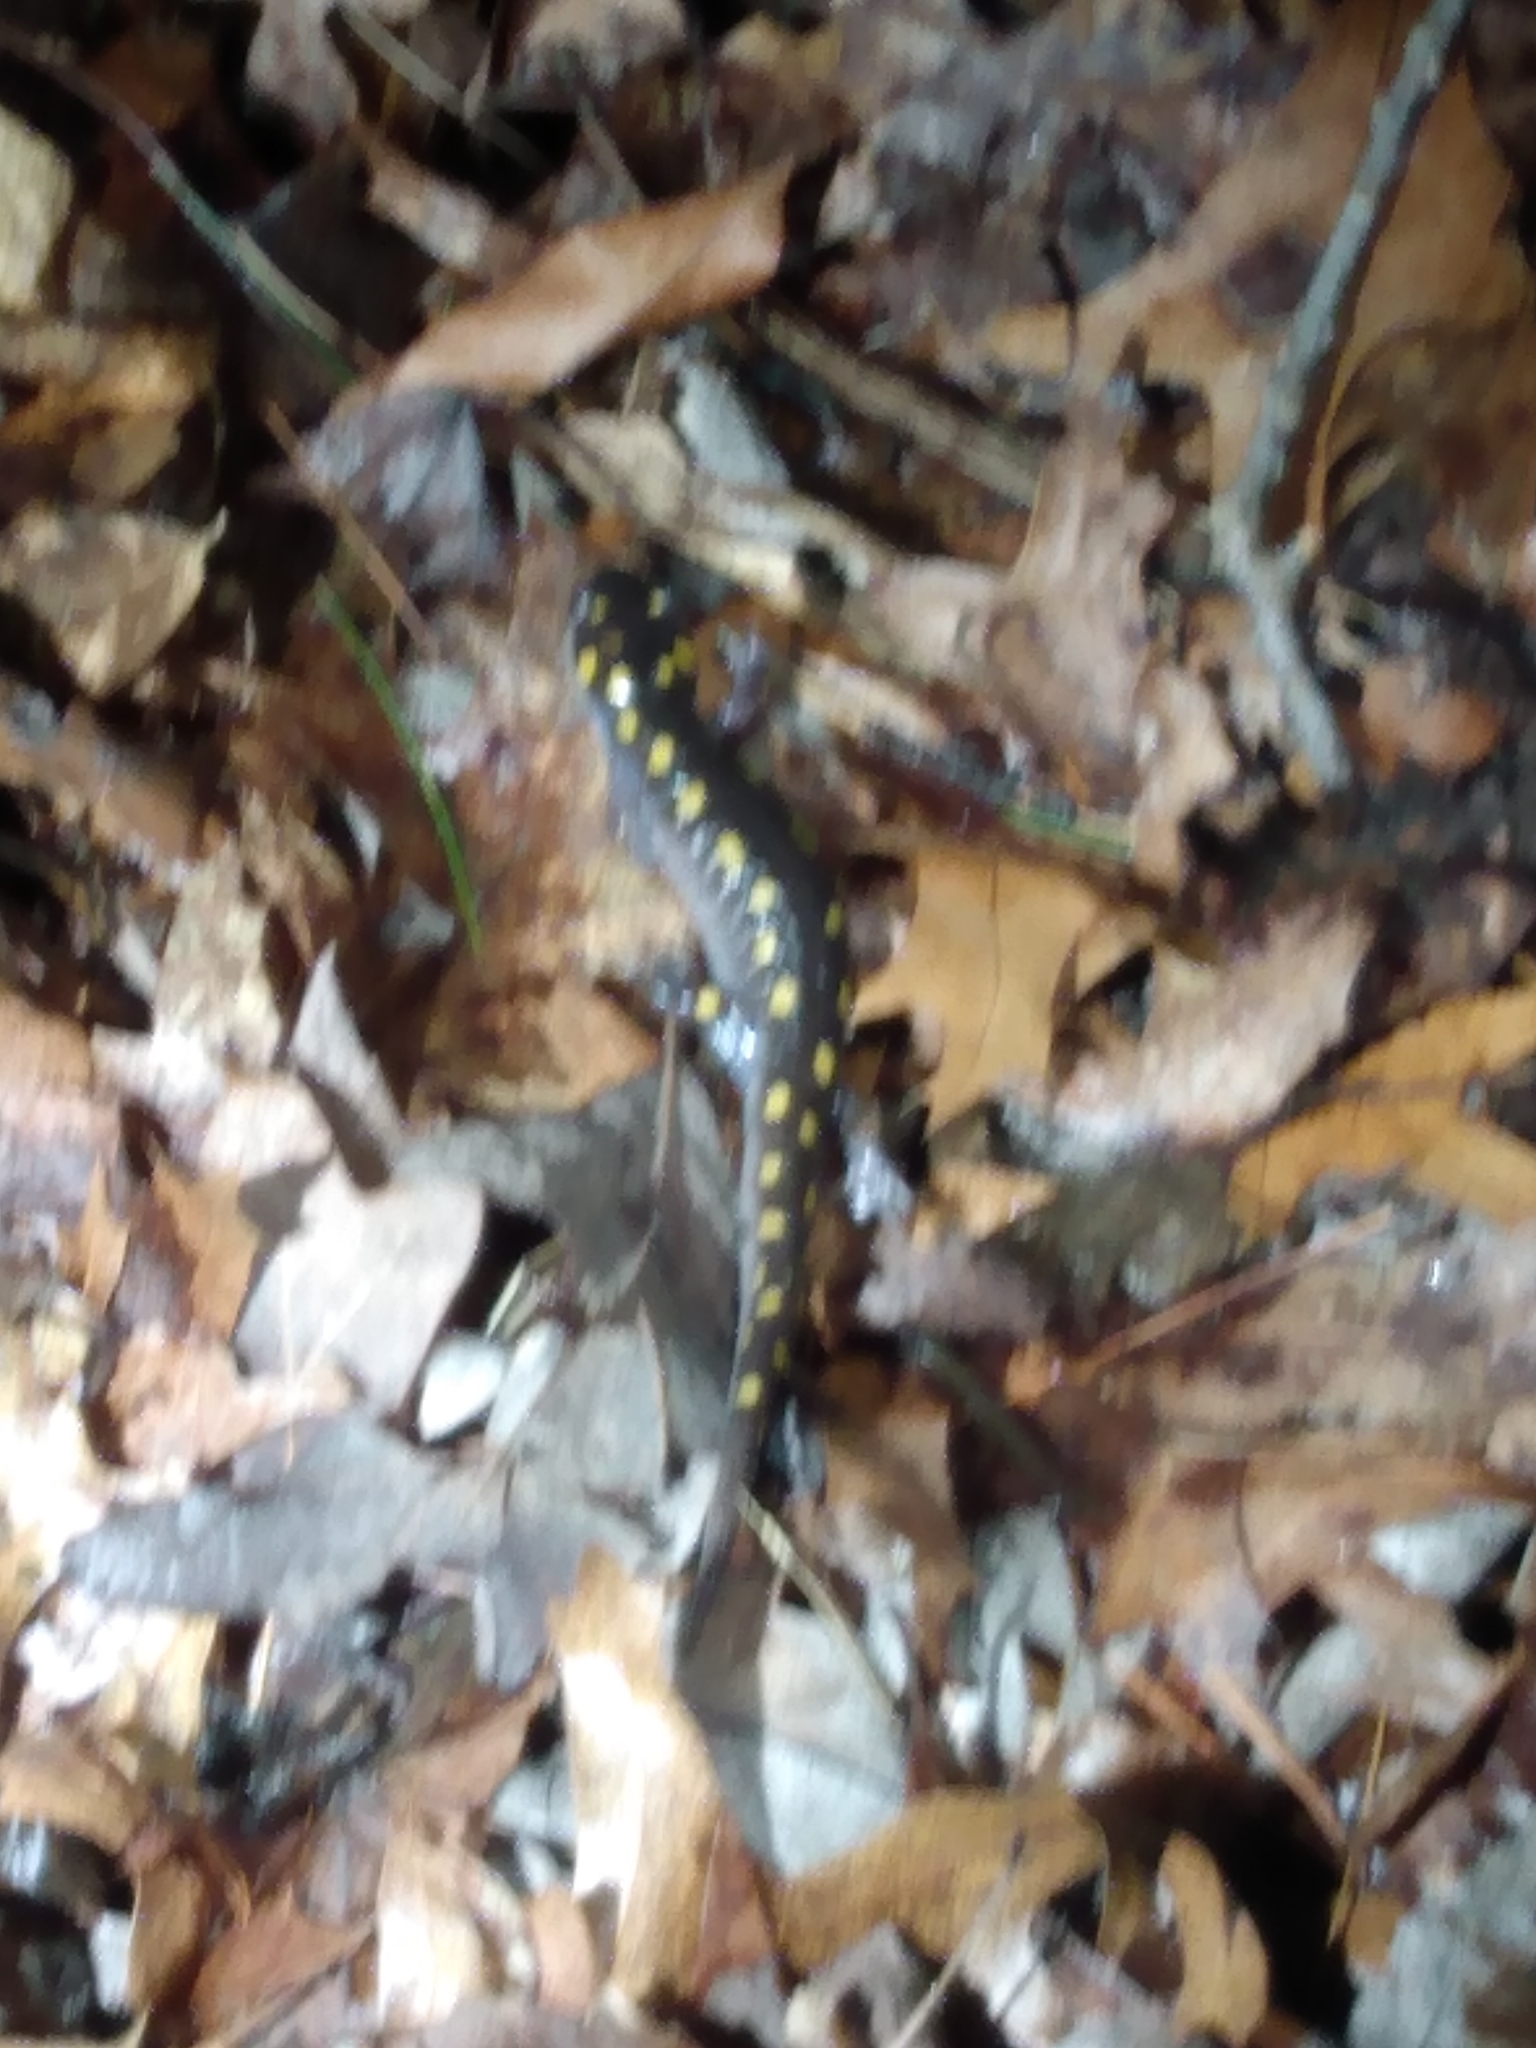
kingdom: Animalia
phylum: Chordata
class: Amphibia
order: Caudata
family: Ambystomatidae
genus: Ambystoma
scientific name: Ambystoma maculatum
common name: Spotted salamander
